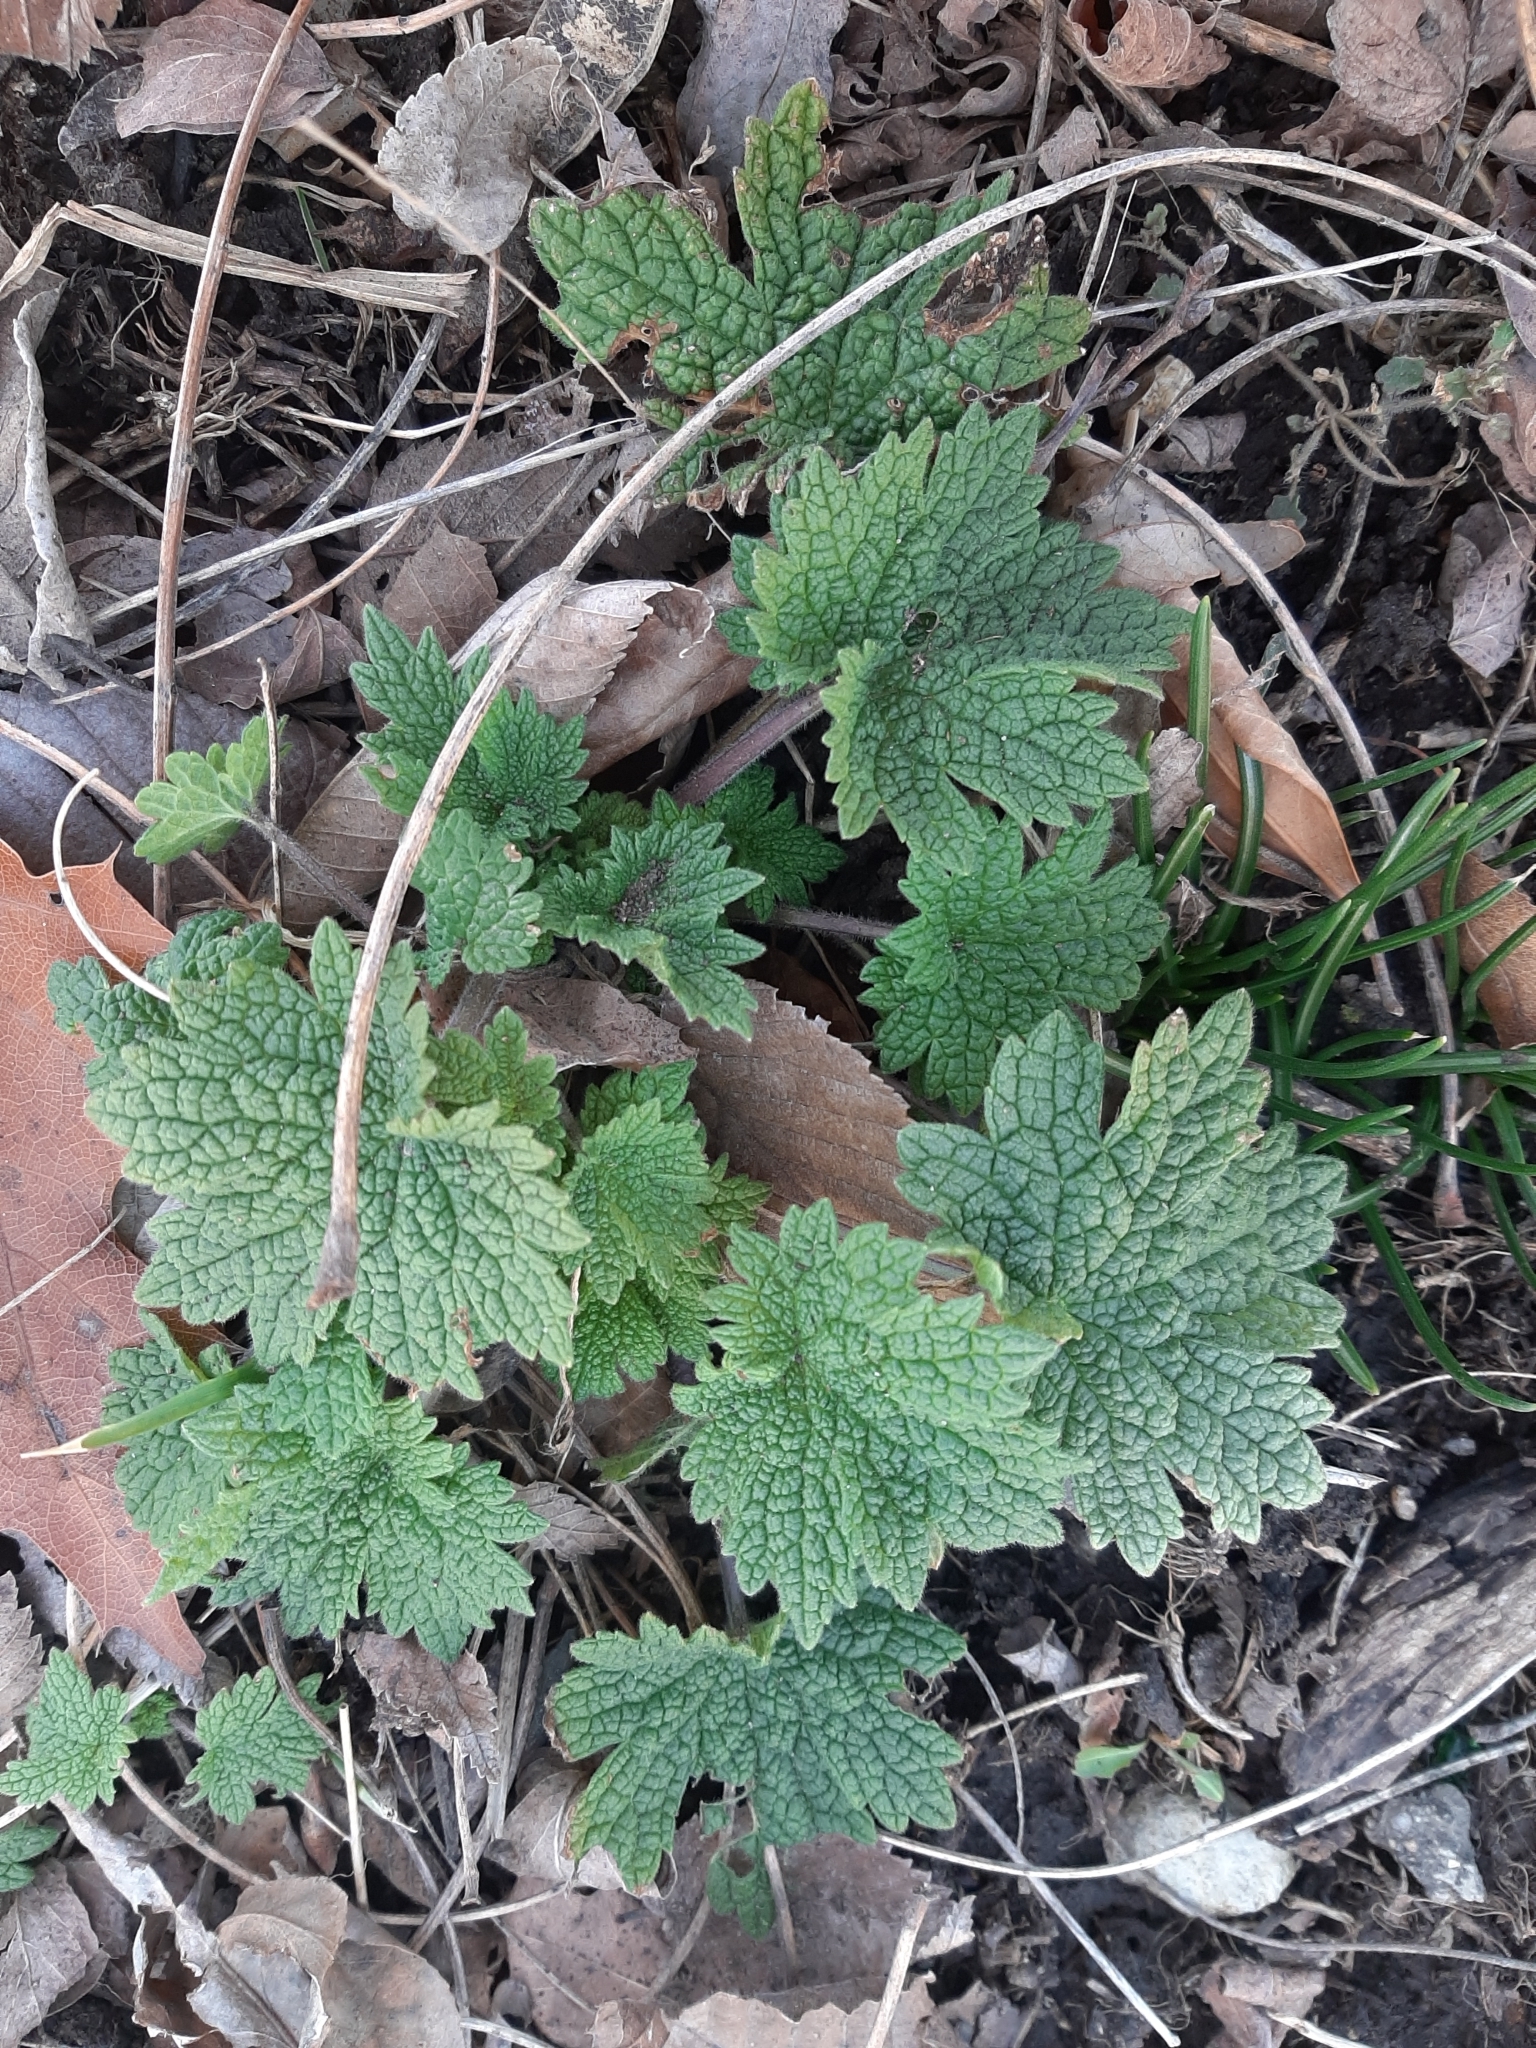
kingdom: Plantae
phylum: Tracheophyta
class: Magnoliopsida
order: Lamiales
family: Lamiaceae
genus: Leonurus
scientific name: Leonurus cardiaca
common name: Motherwort
